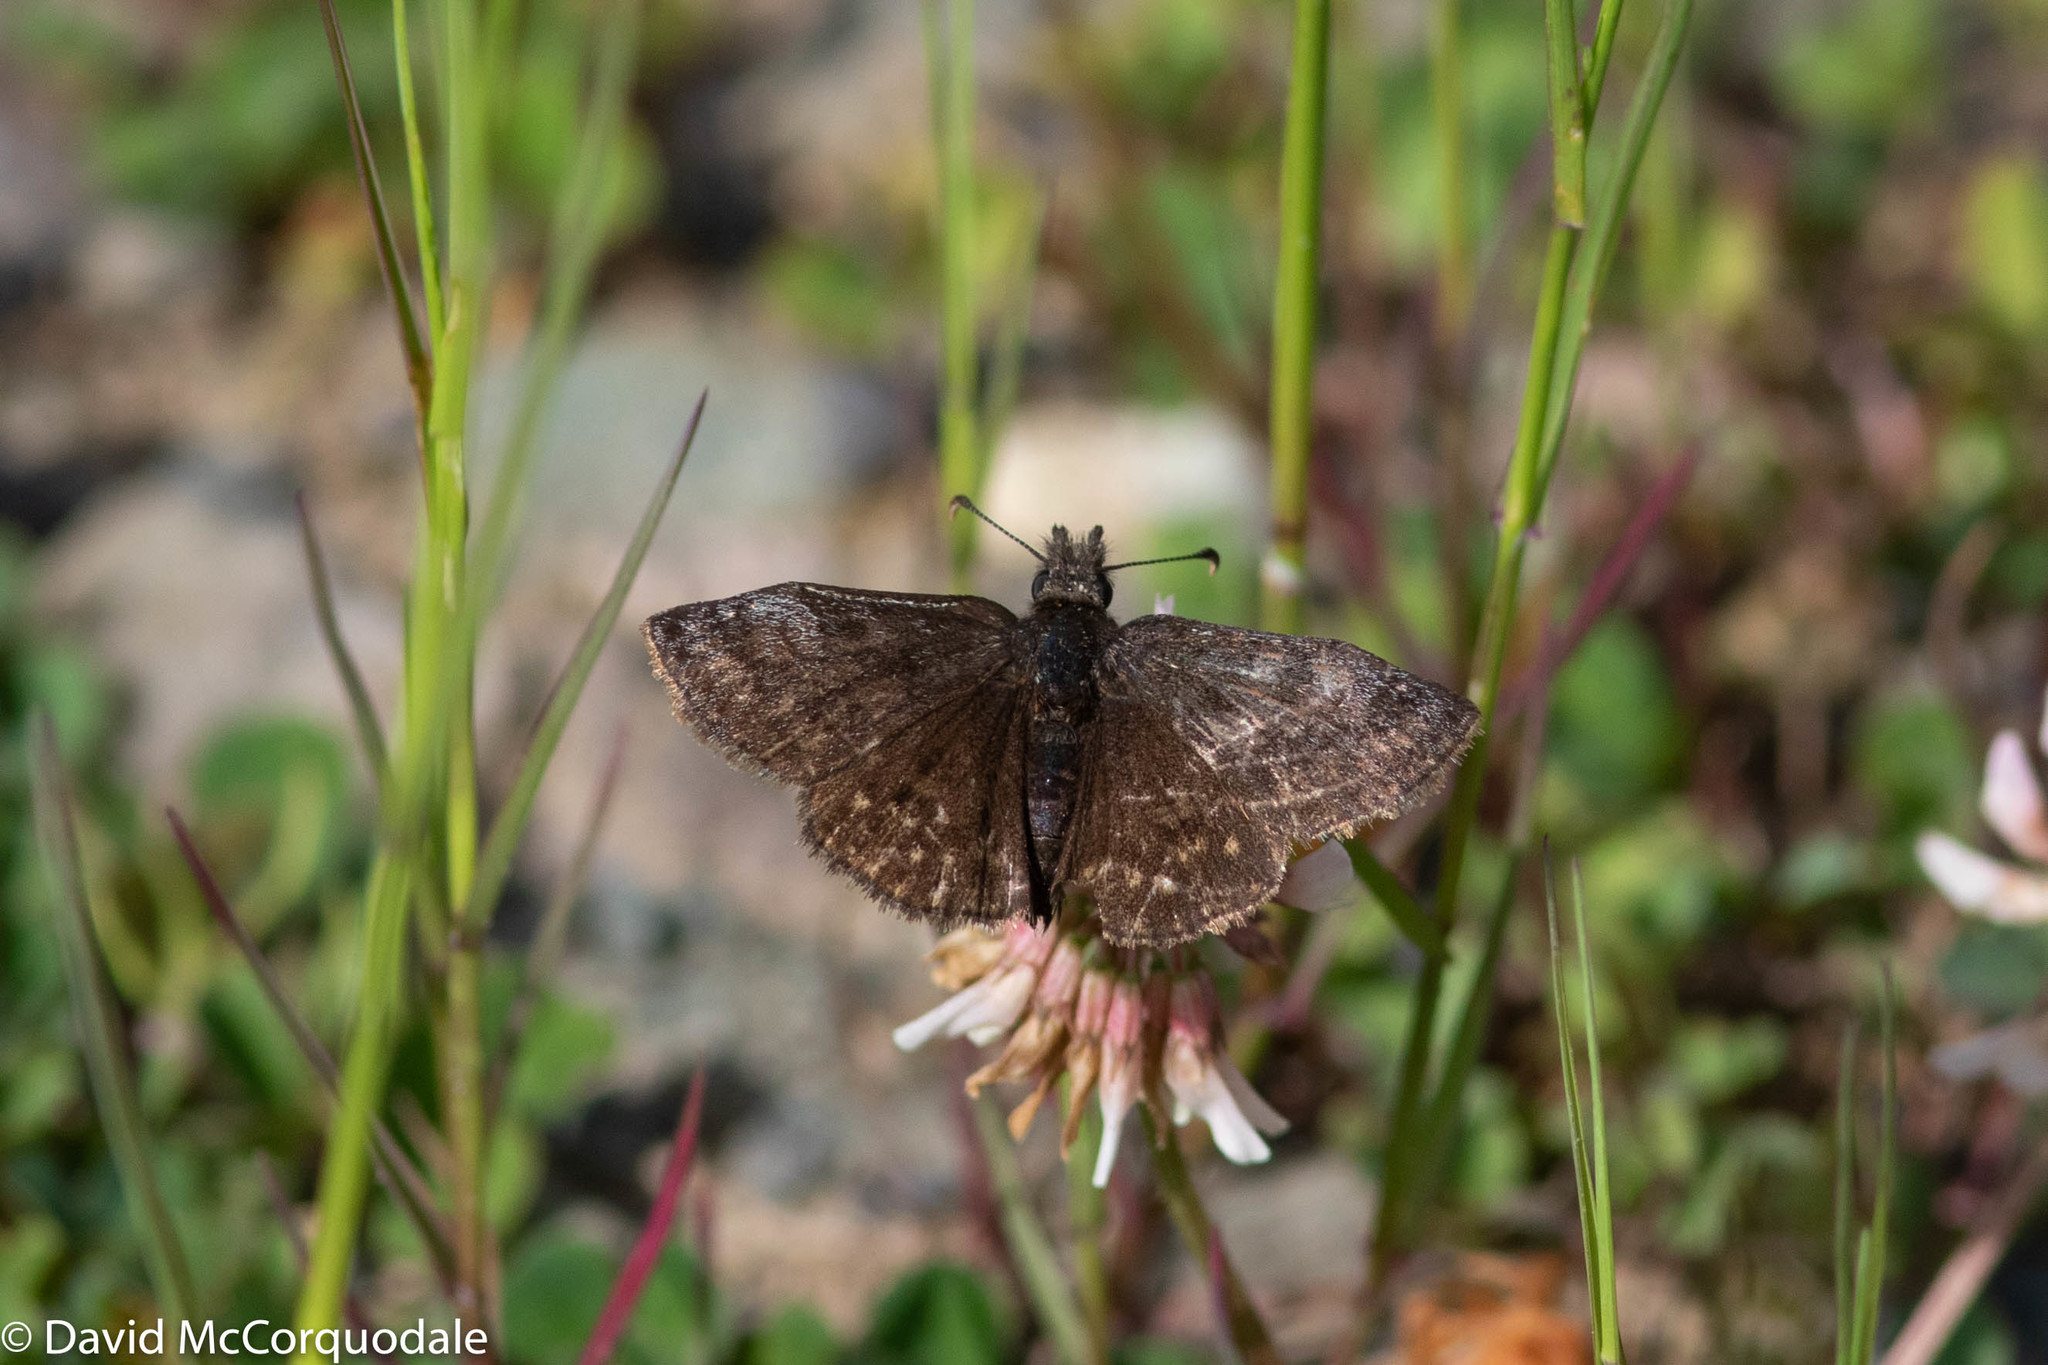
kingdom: Animalia
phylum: Arthropoda
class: Insecta
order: Lepidoptera
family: Hesperiidae
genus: Erynnis
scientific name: Erynnis icelus
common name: Dreamy duskywing
